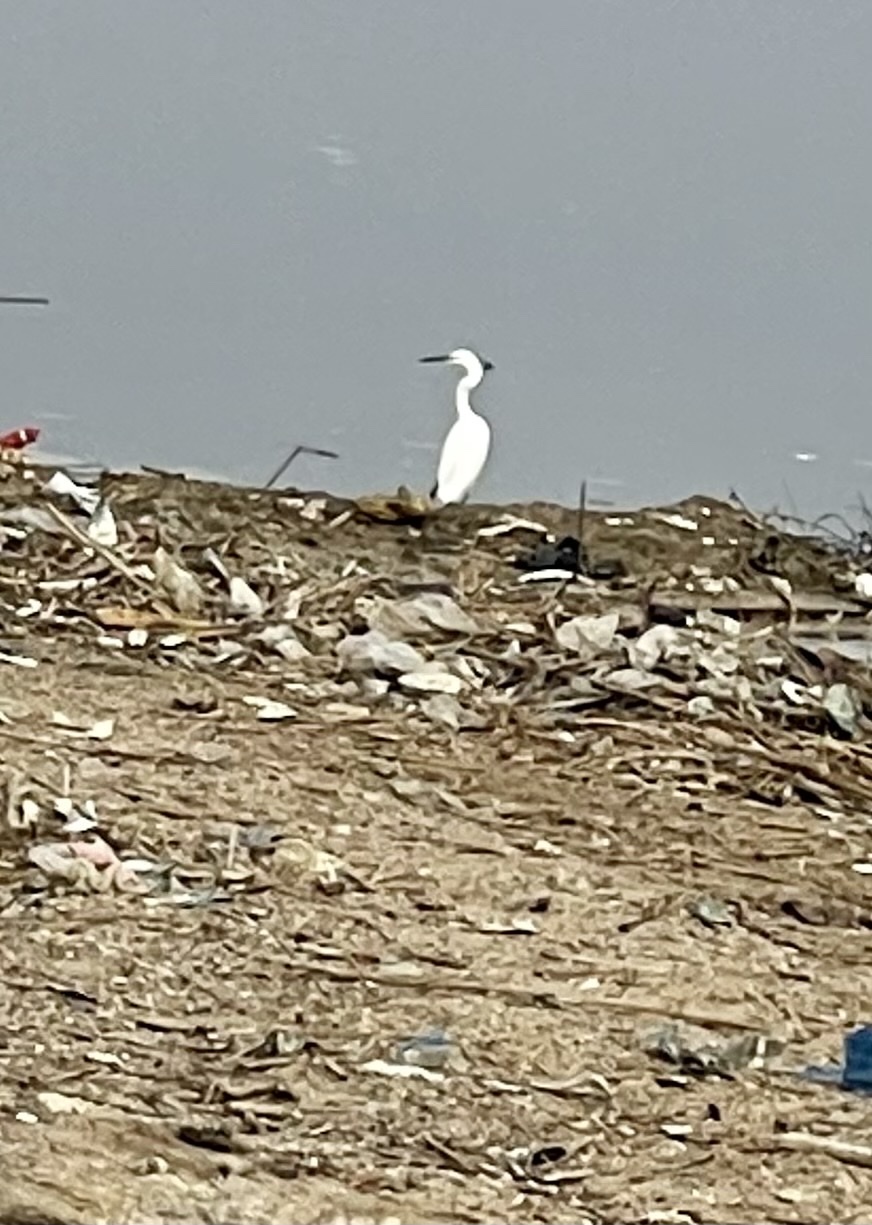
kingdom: Animalia
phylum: Chordata
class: Aves
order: Pelecaniformes
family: Ardeidae
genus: Egretta
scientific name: Egretta garzetta
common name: Little egret
